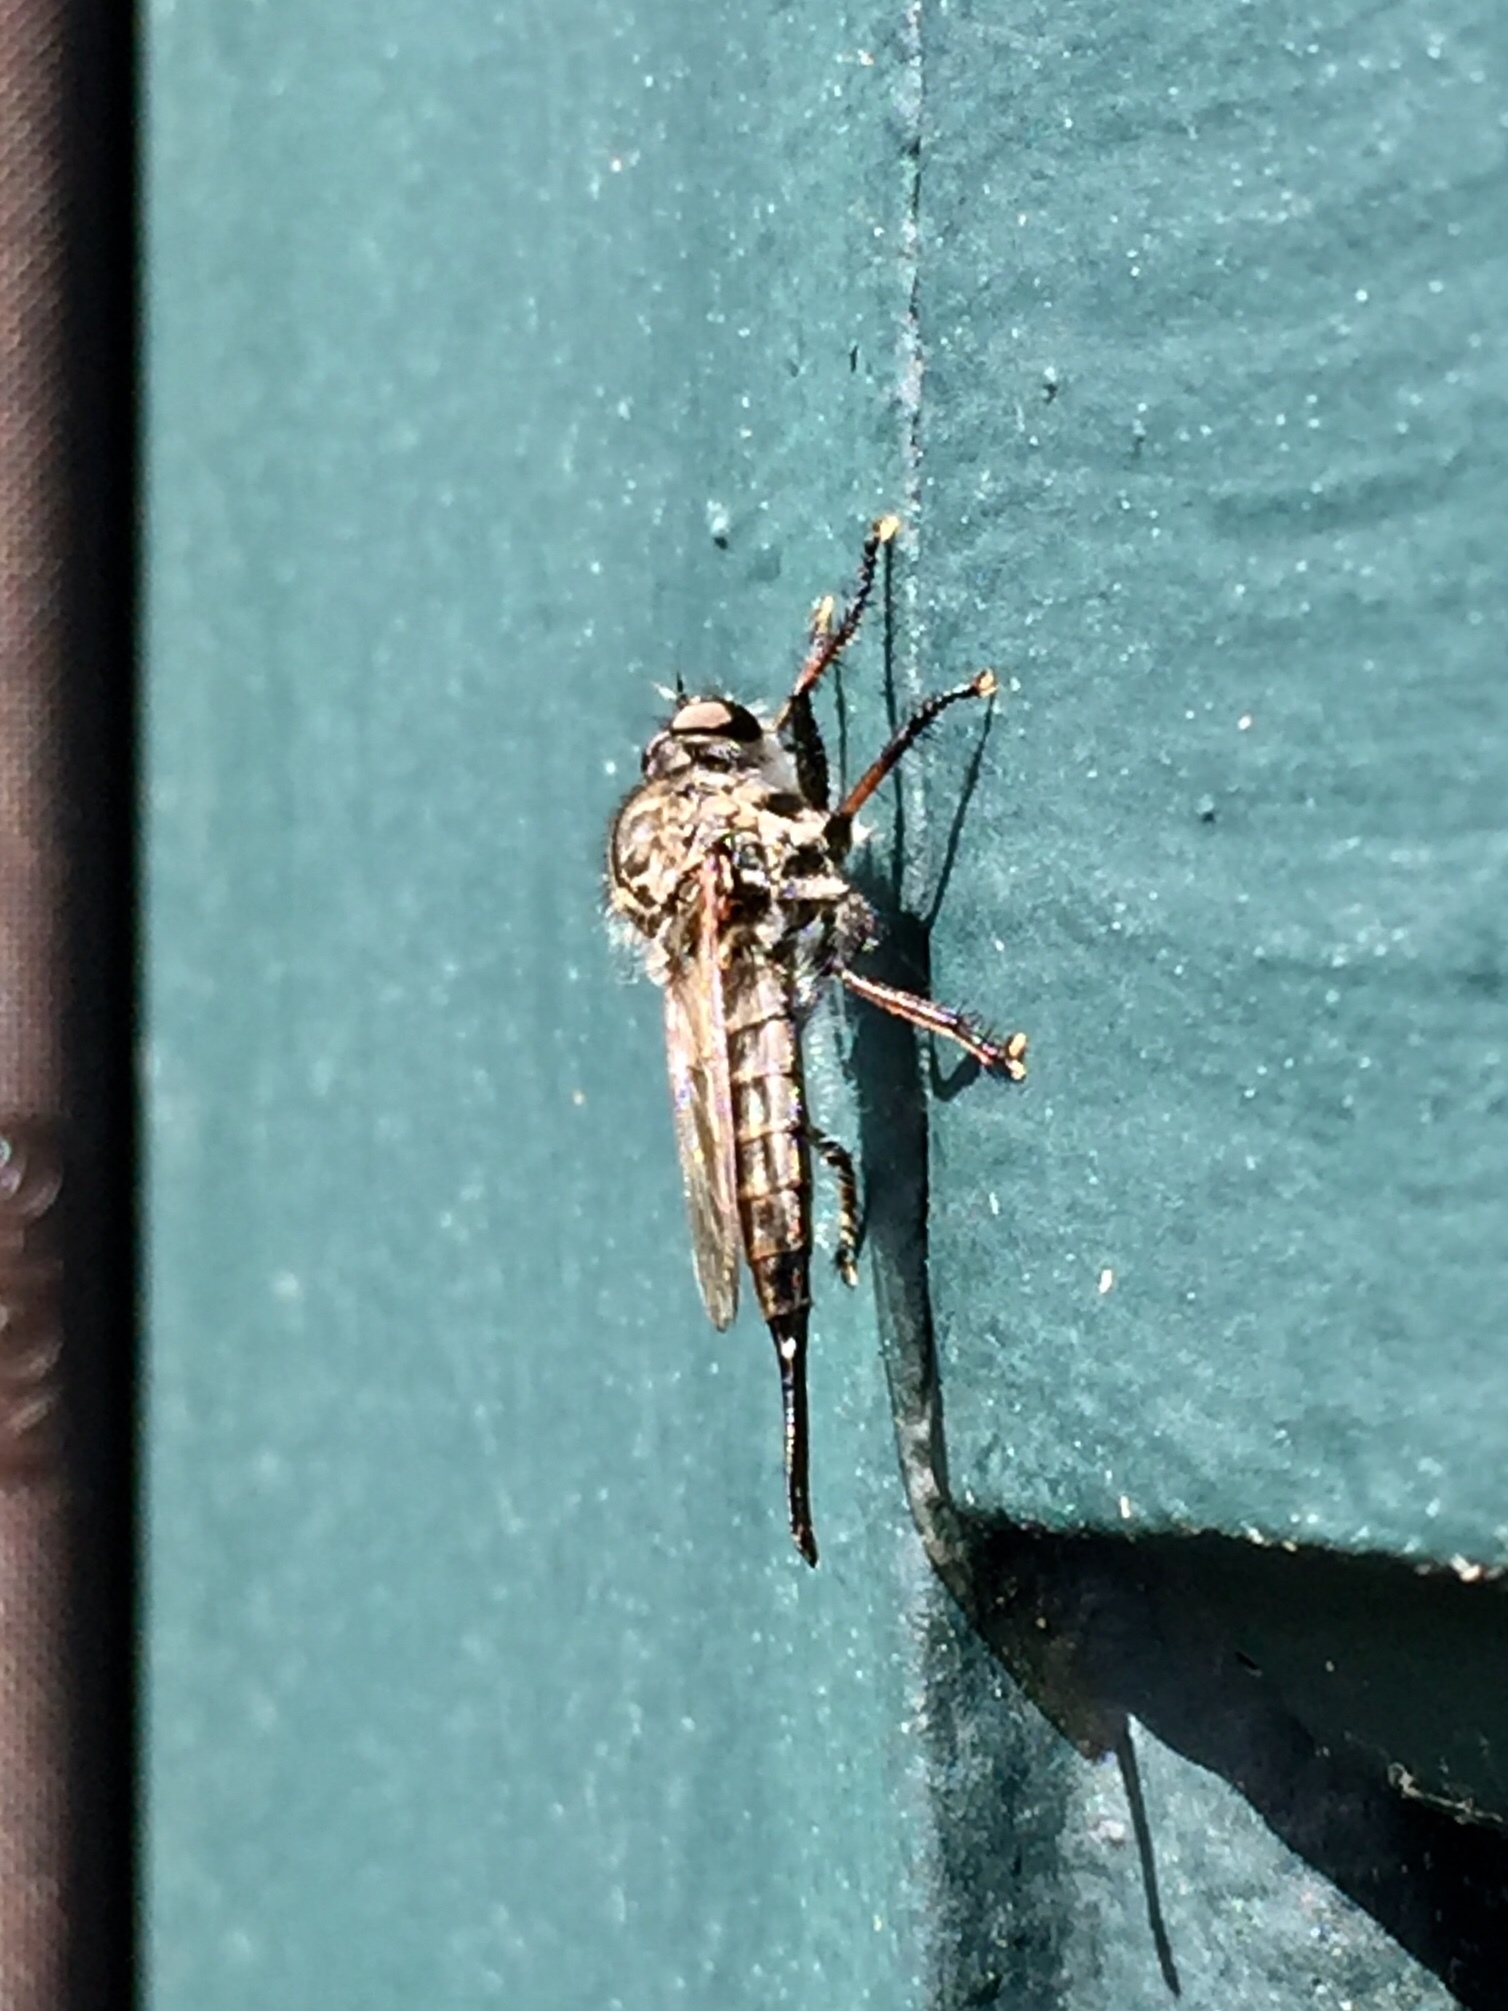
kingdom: Animalia
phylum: Arthropoda
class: Insecta
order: Diptera
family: Asilidae
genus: Efferia
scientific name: Efferia aestuans
